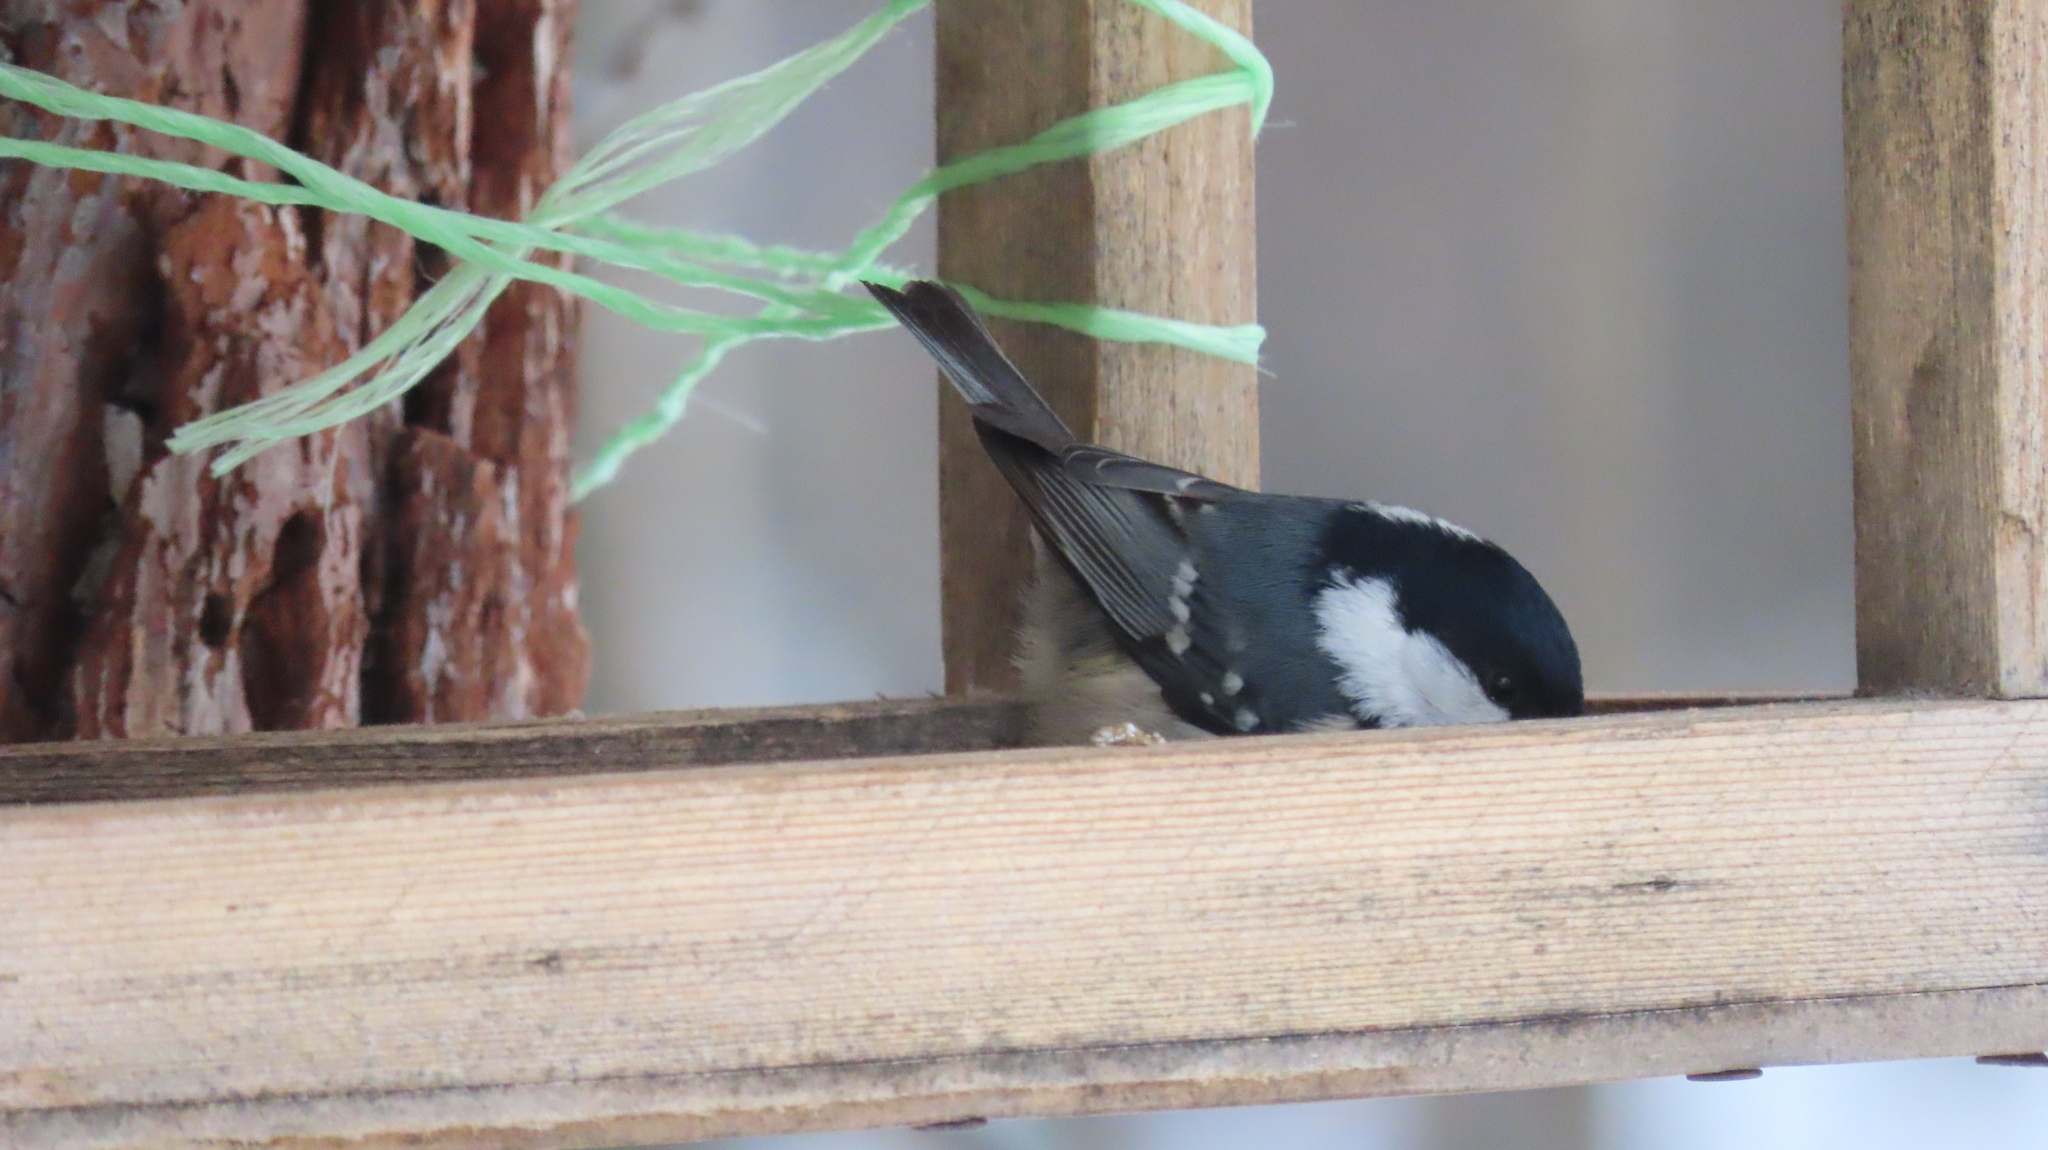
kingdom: Animalia
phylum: Chordata
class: Aves
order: Passeriformes
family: Paridae
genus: Periparus
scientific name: Periparus ater
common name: Coal tit
